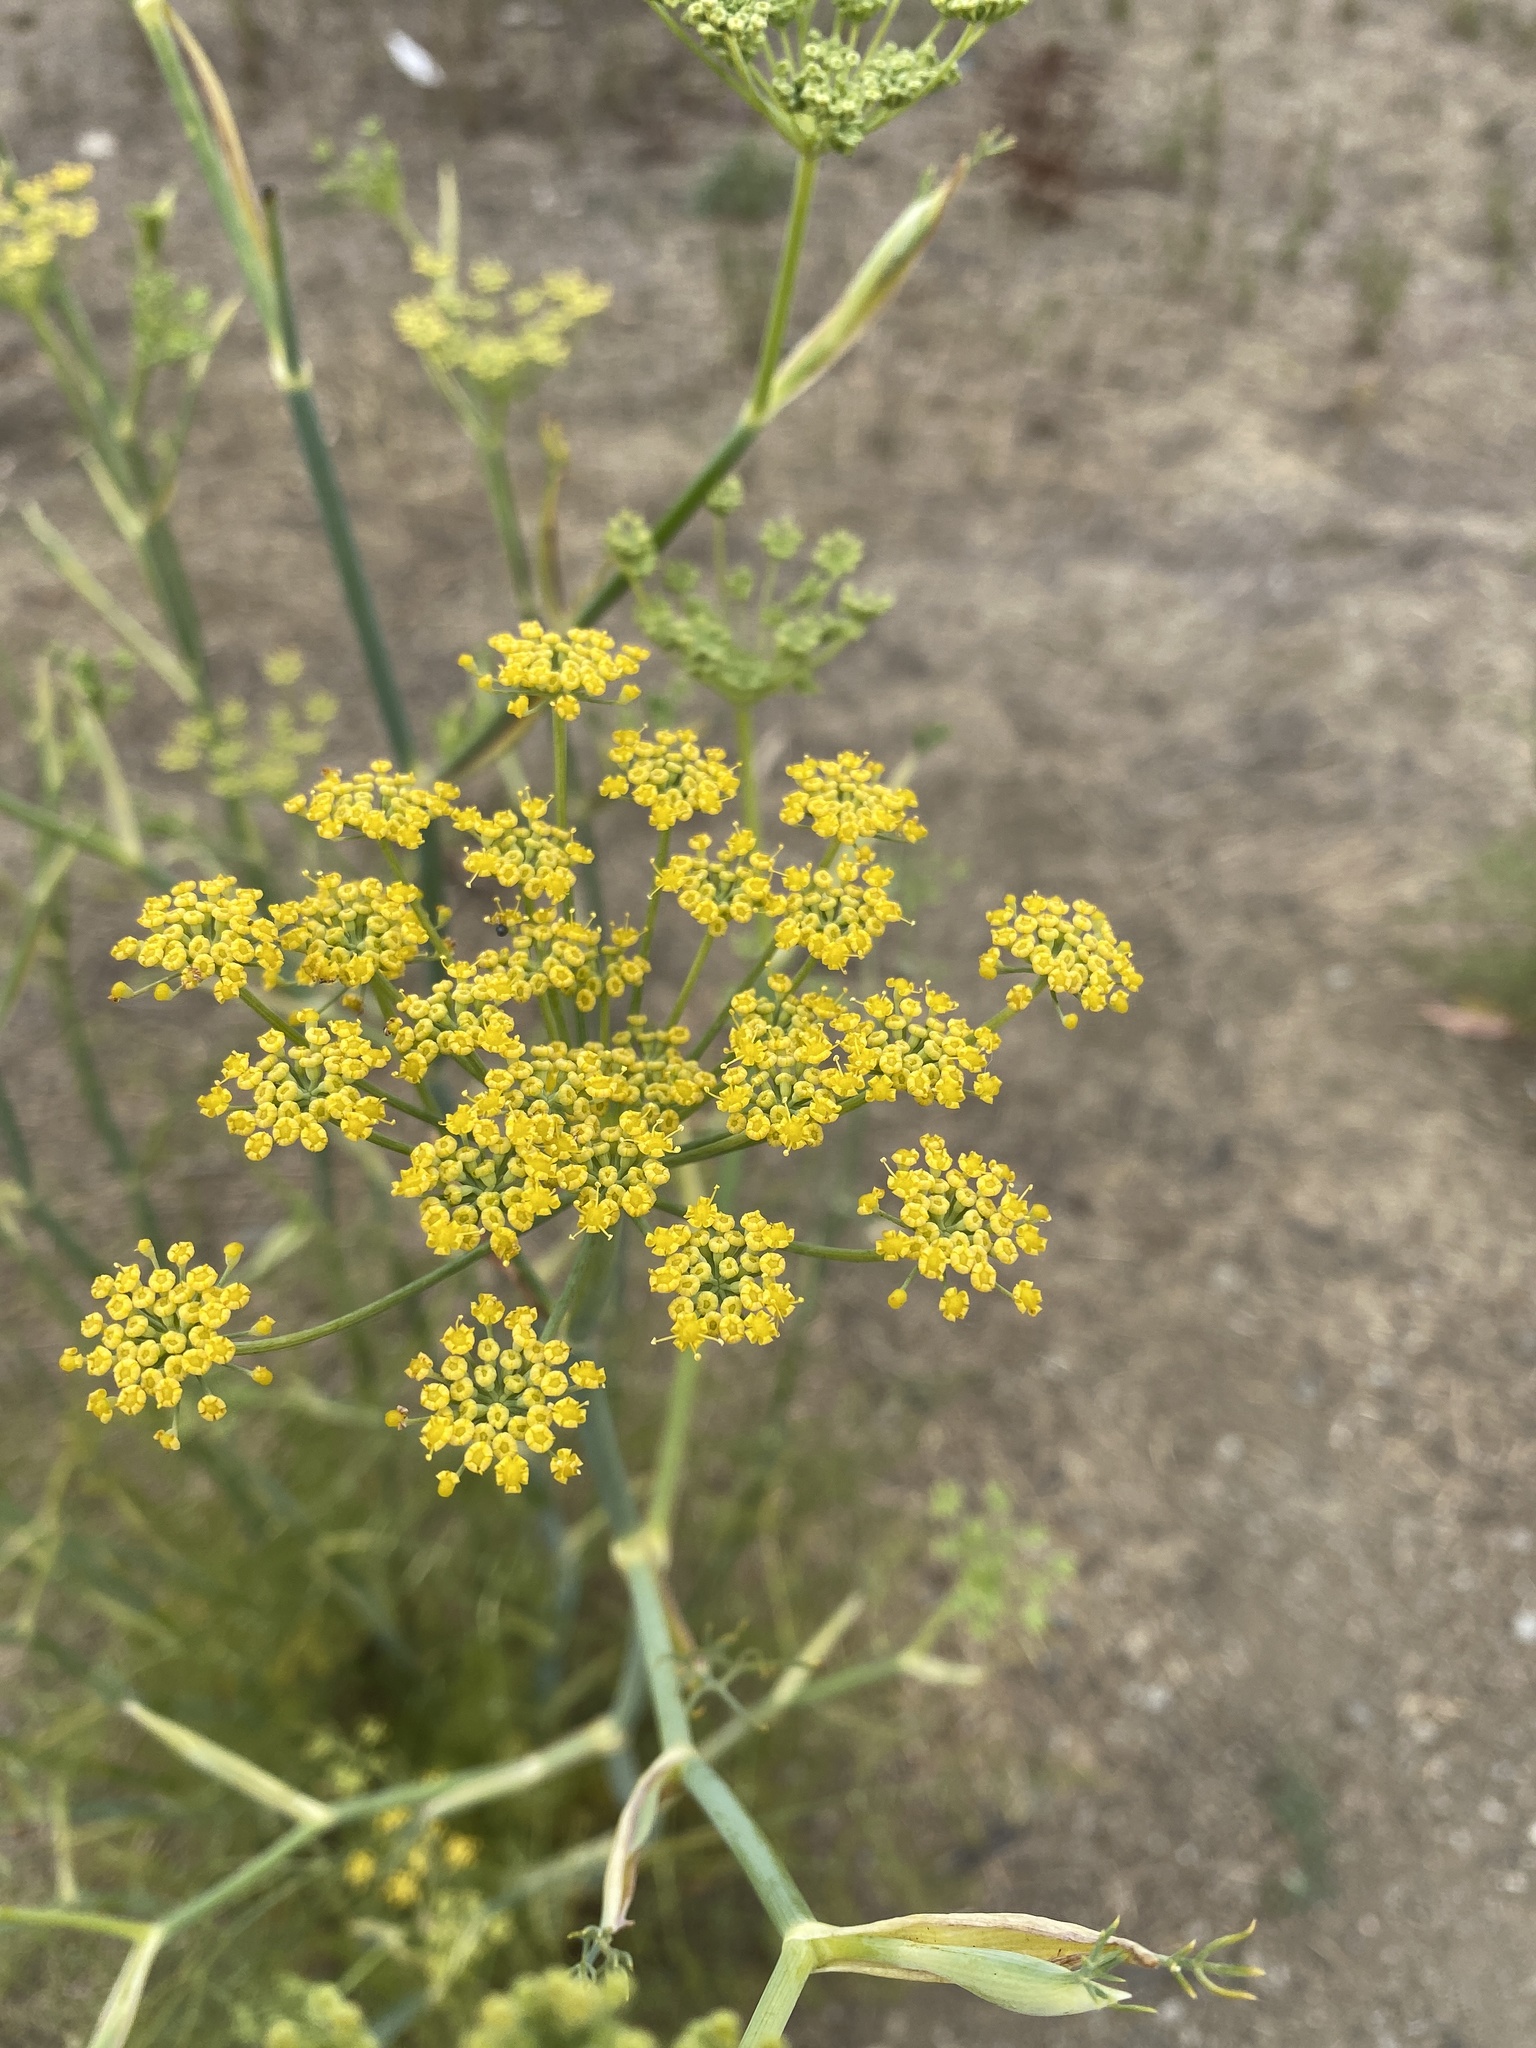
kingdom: Plantae
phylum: Tracheophyta
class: Magnoliopsida
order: Apiales
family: Apiaceae
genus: Foeniculum
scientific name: Foeniculum vulgare
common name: Fennel
